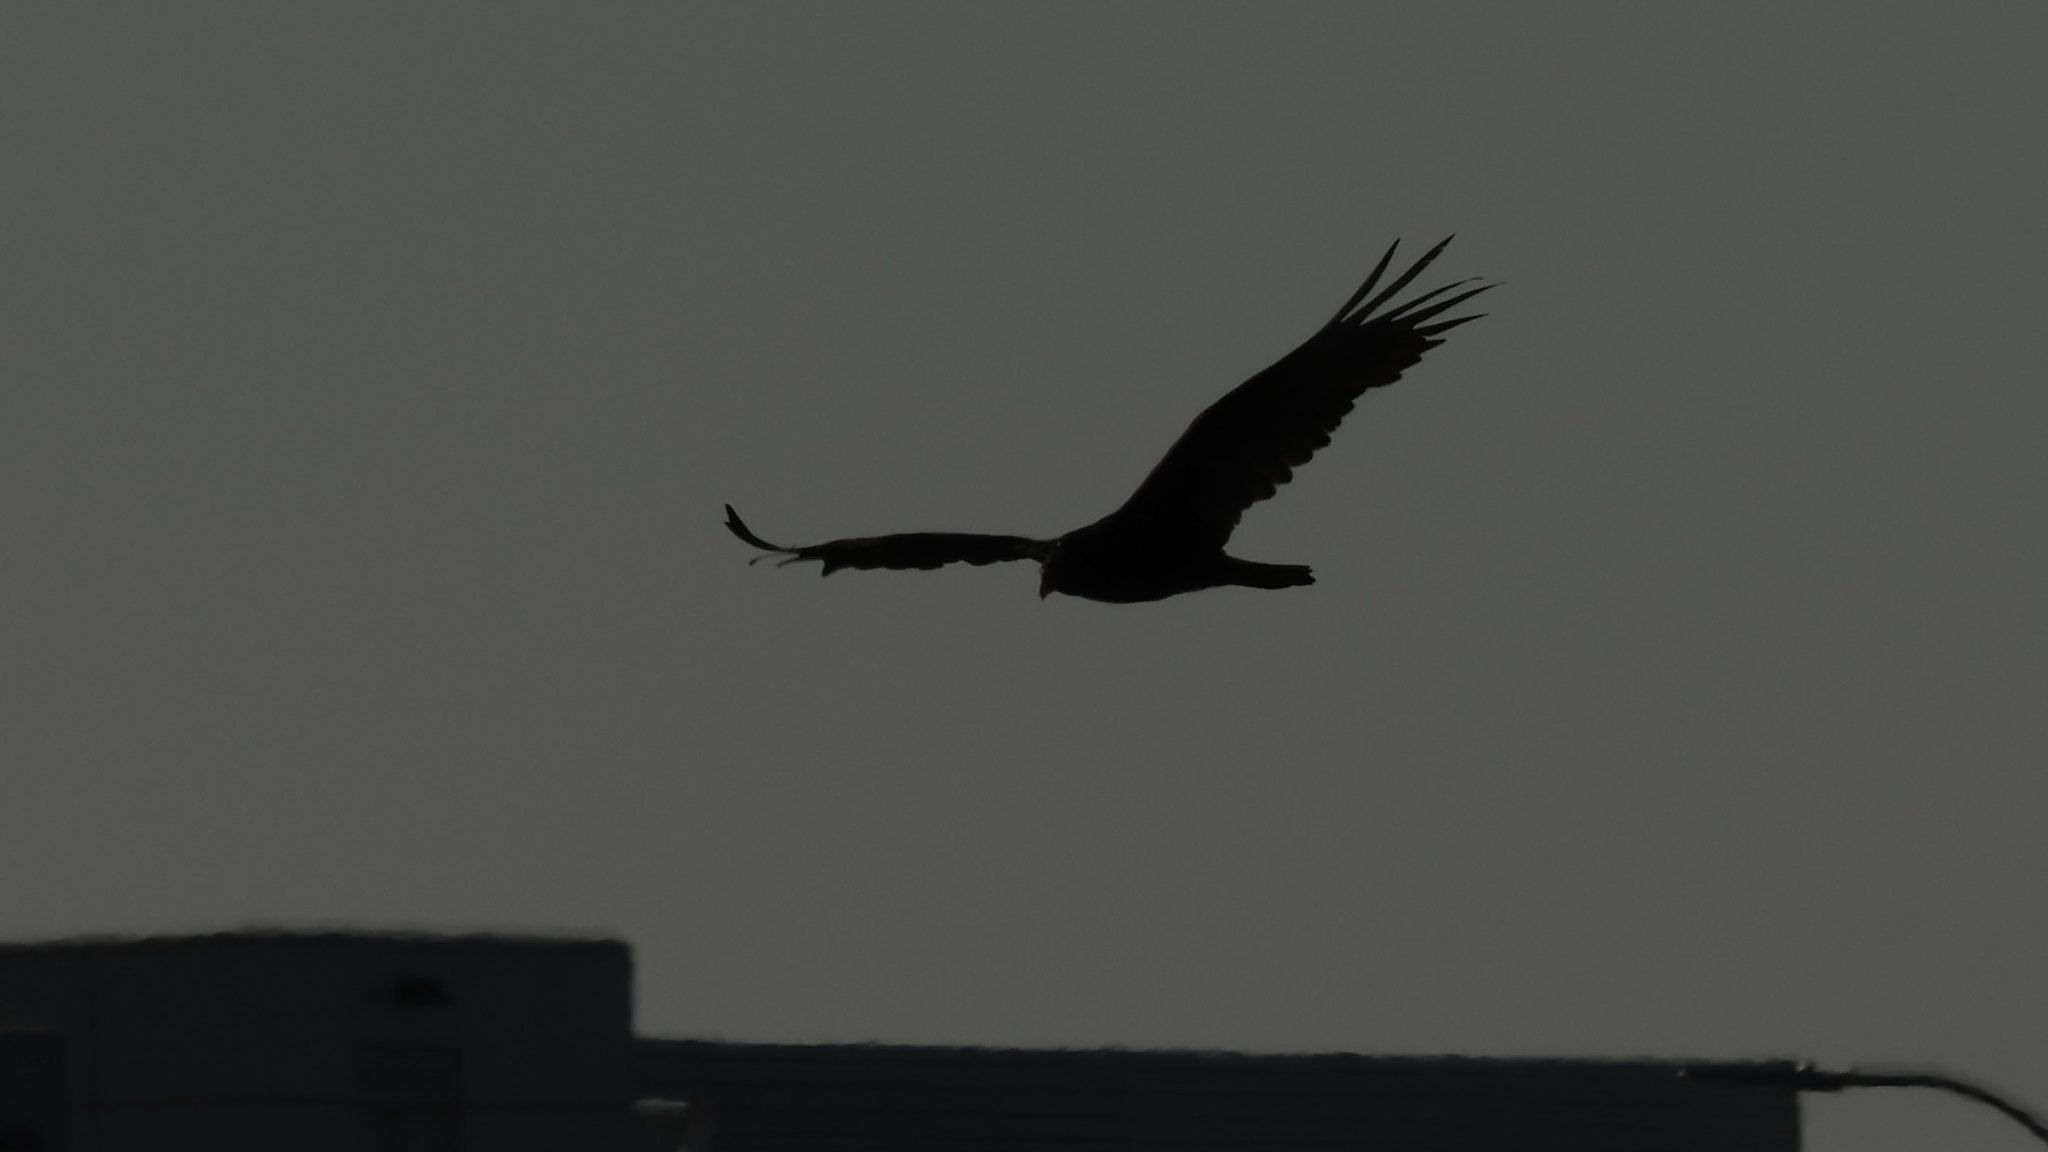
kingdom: Animalia
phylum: Chordata
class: Aves
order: Accipitriformes
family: Cathartidae
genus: Cathartes
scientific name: Cathartes aura
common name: Turkey vulture
